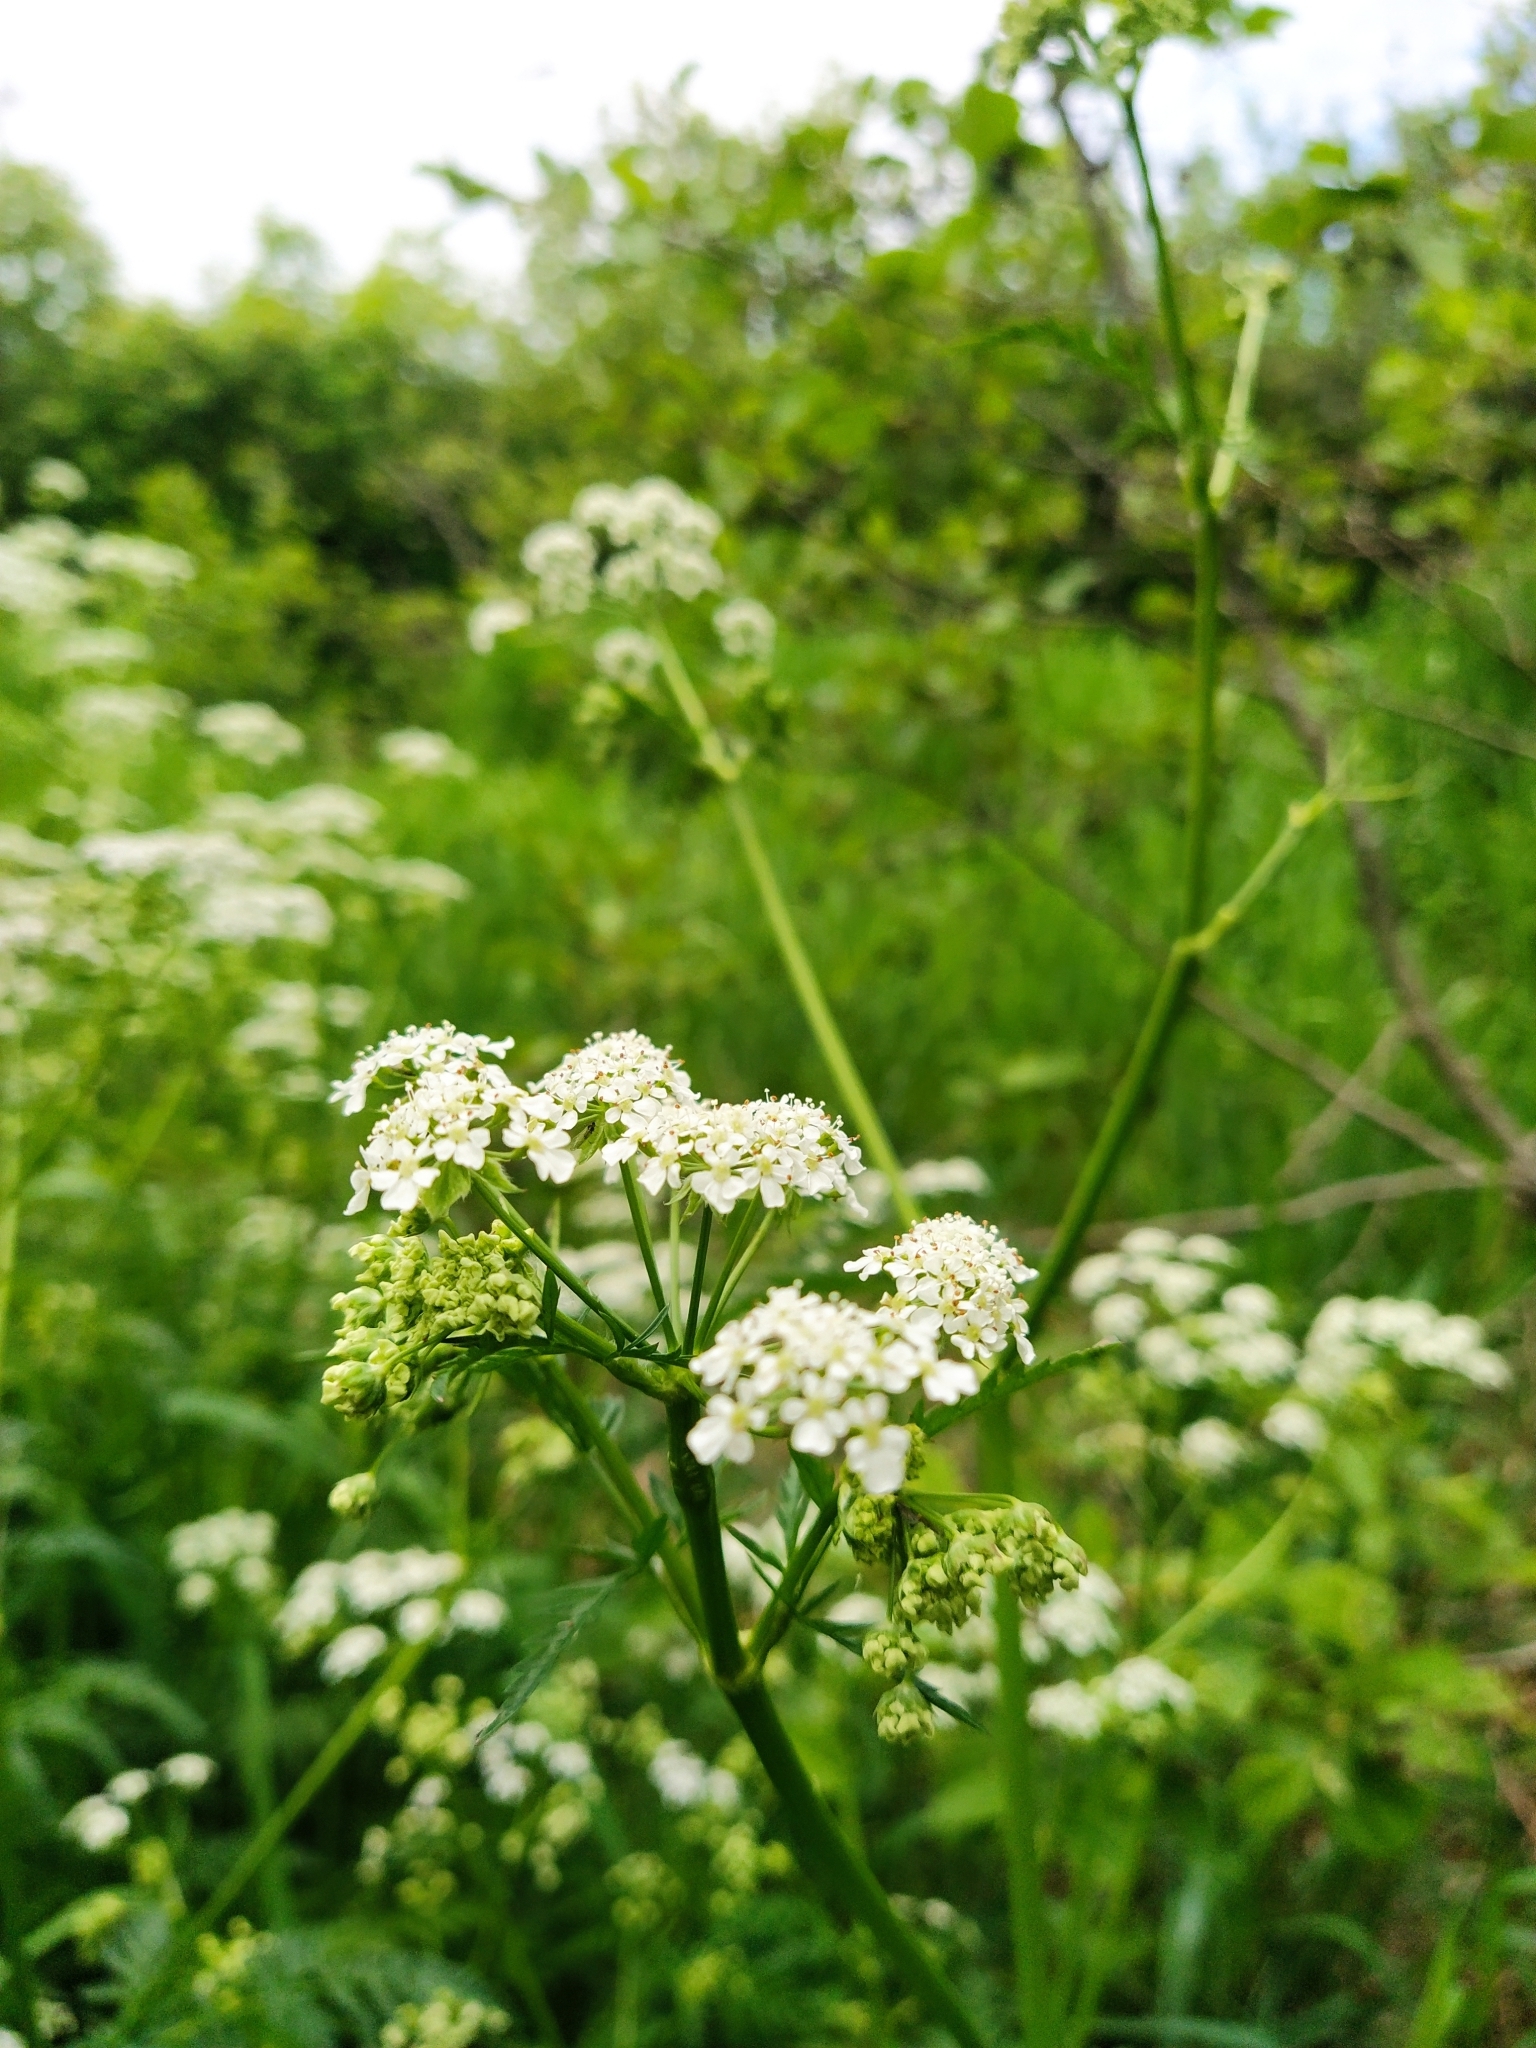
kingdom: Plantae
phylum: Tracheophyta
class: Magnoliopsida
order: Dipsacales
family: Caprifoliaceae
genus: Valeriana
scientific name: Valeriana officinalis
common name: Common valerian
